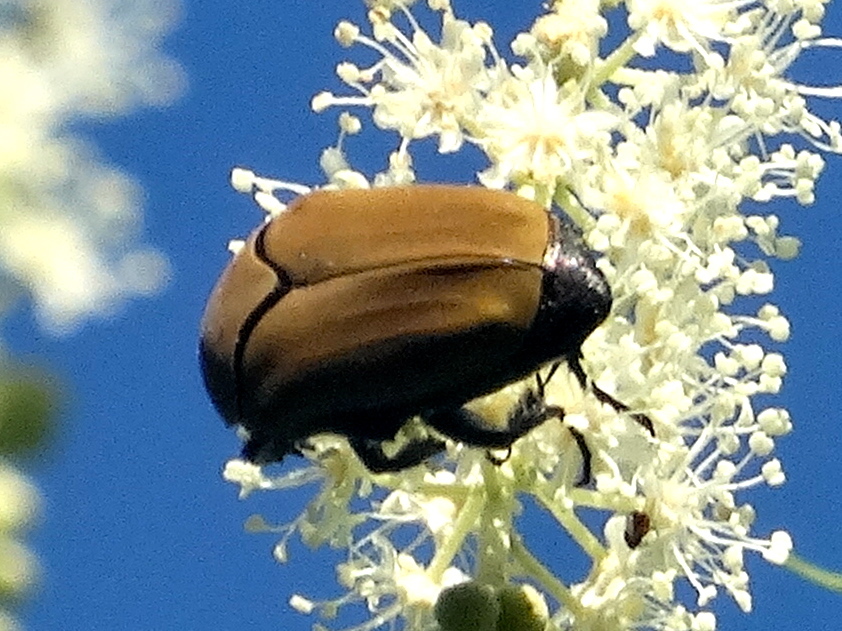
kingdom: Animalia
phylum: Arthropoda
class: Insecta
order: Coleoptera
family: Scarabaeidae
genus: Hologymnetis
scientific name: Hologymnetis cinerea
